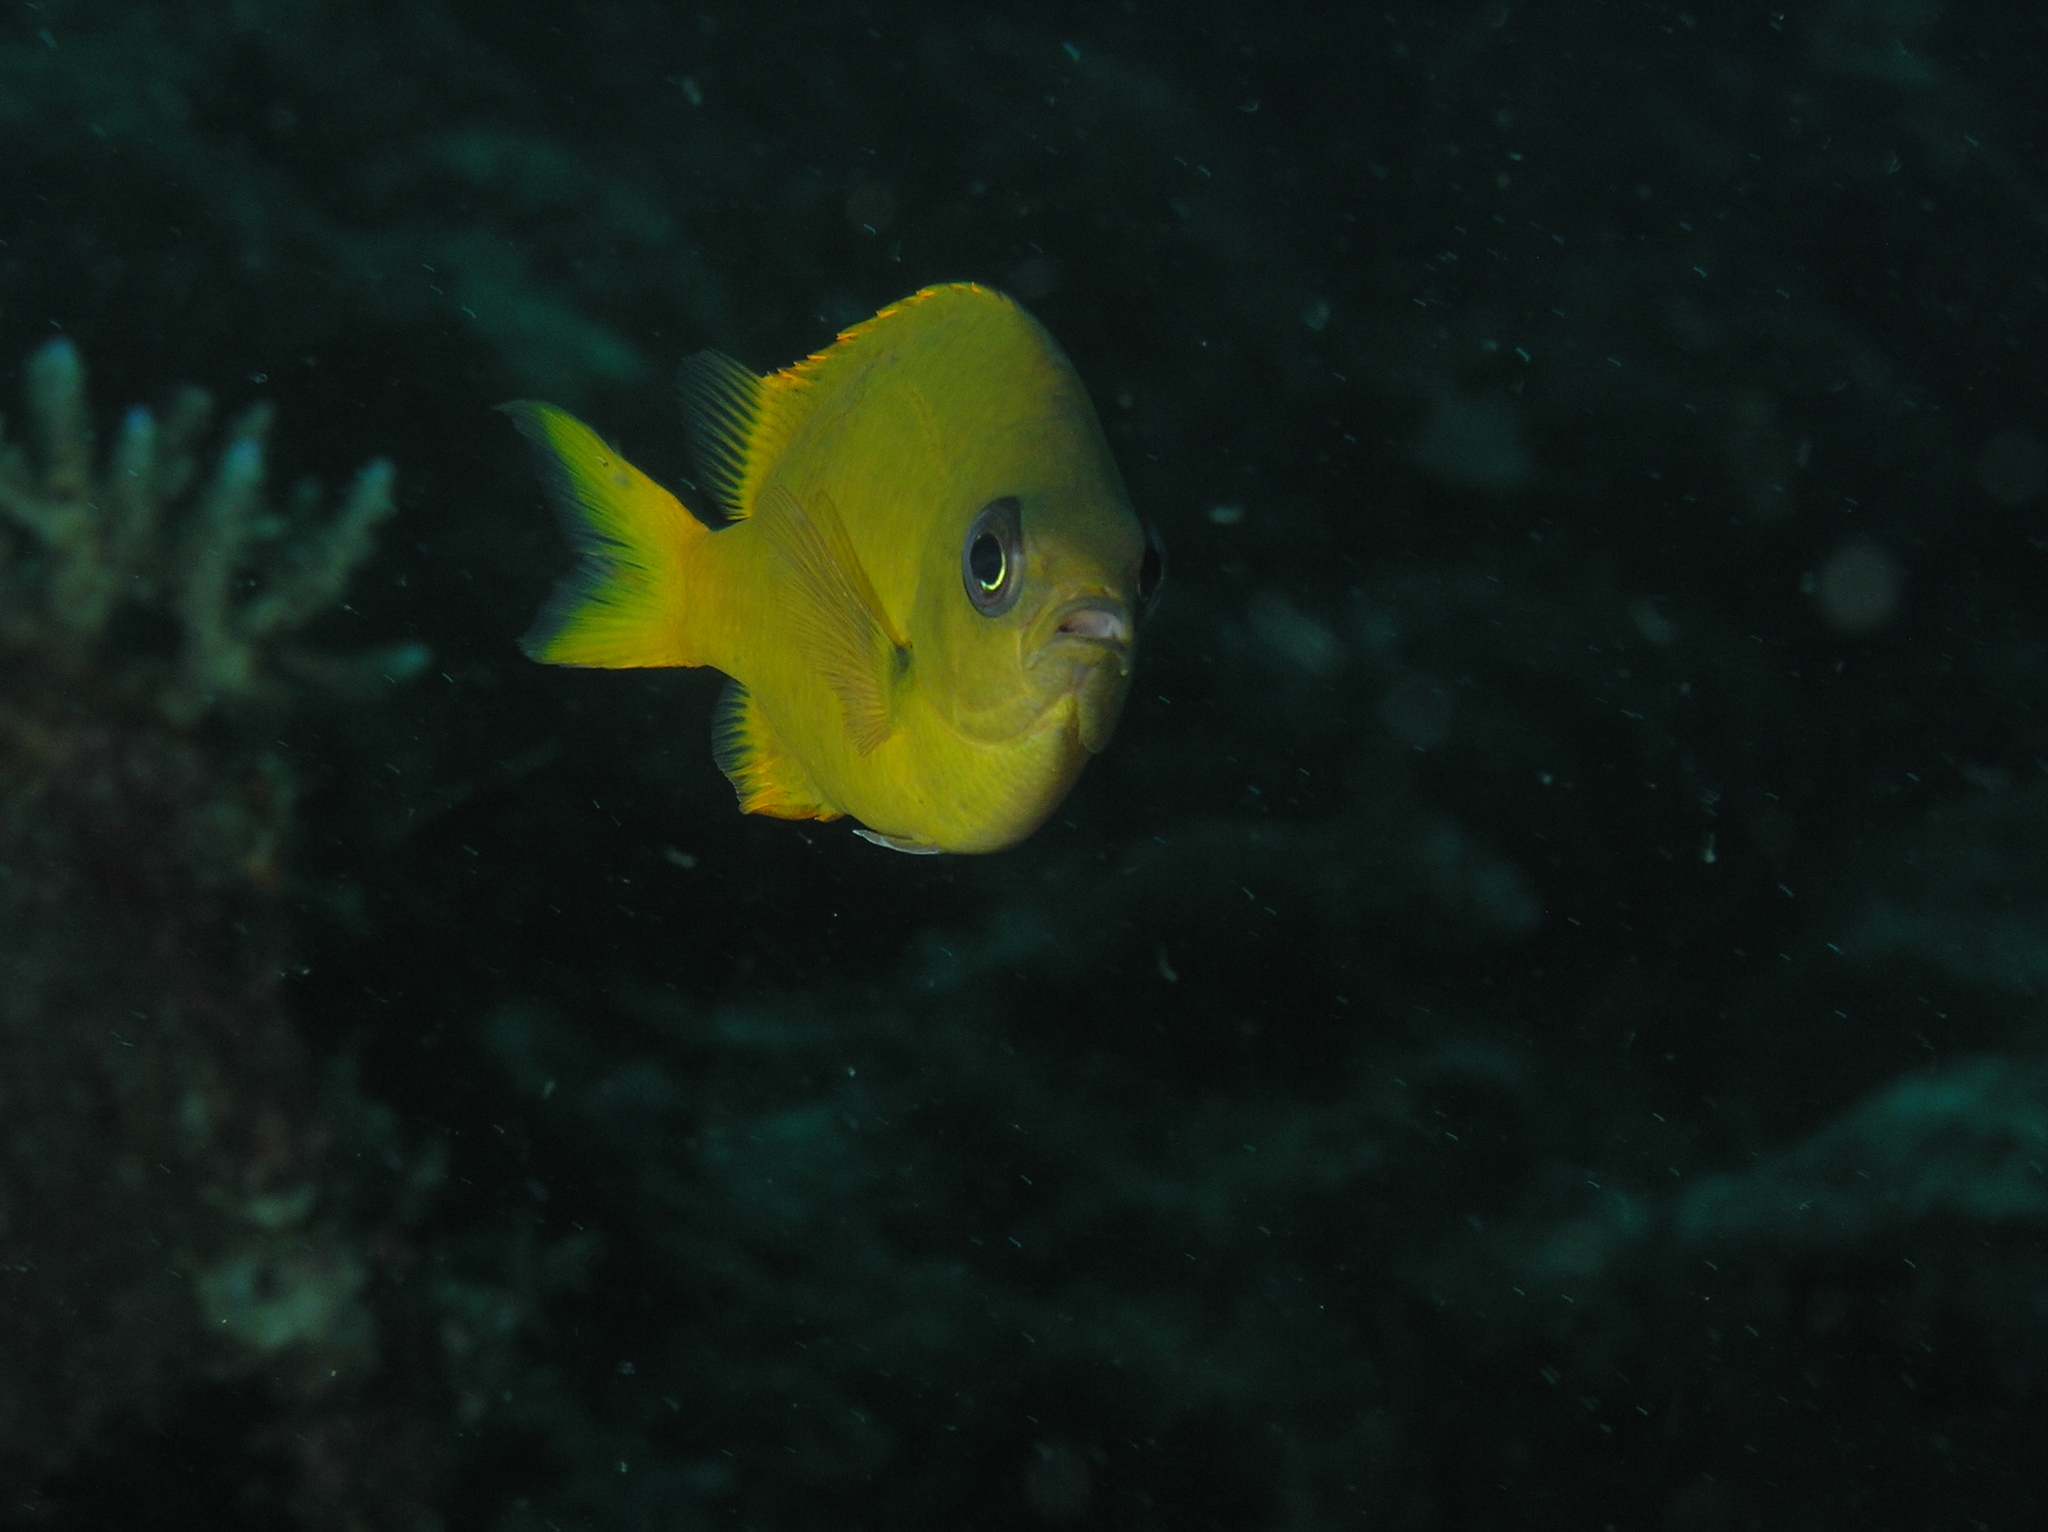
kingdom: Animalia
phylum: Chordata
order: Perciformes
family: Pomacentridae
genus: Chromis
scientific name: Chromis analis
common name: Yellow chromis
